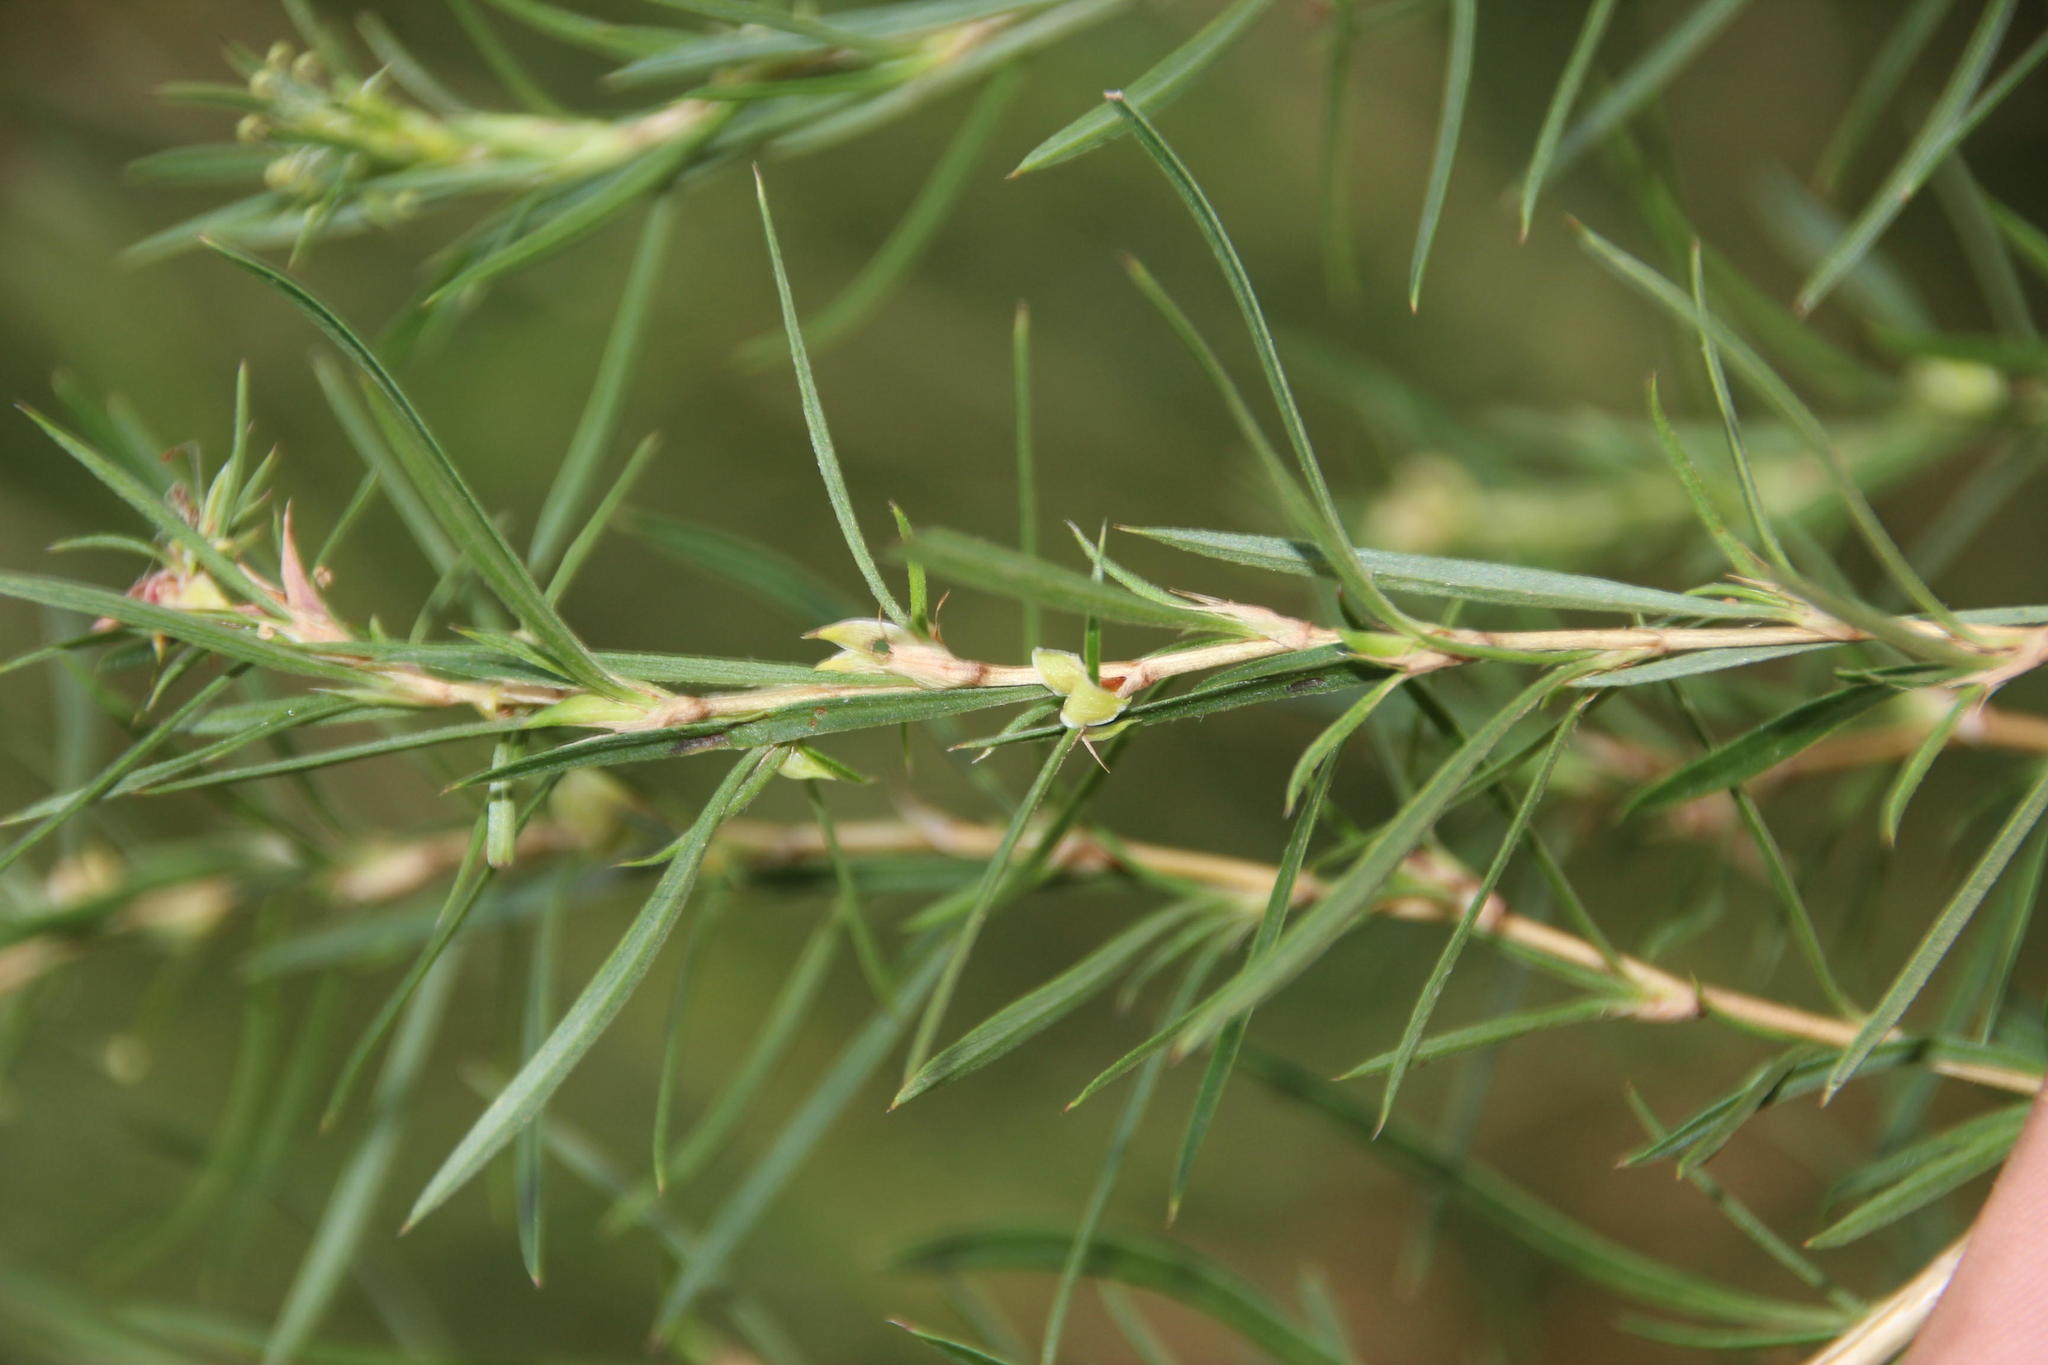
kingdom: Plantae
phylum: Tracheophyta
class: Magnoliopsida
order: Rosales
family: Rosaceae
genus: Cliffortia
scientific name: Cliffortia strobilifera
